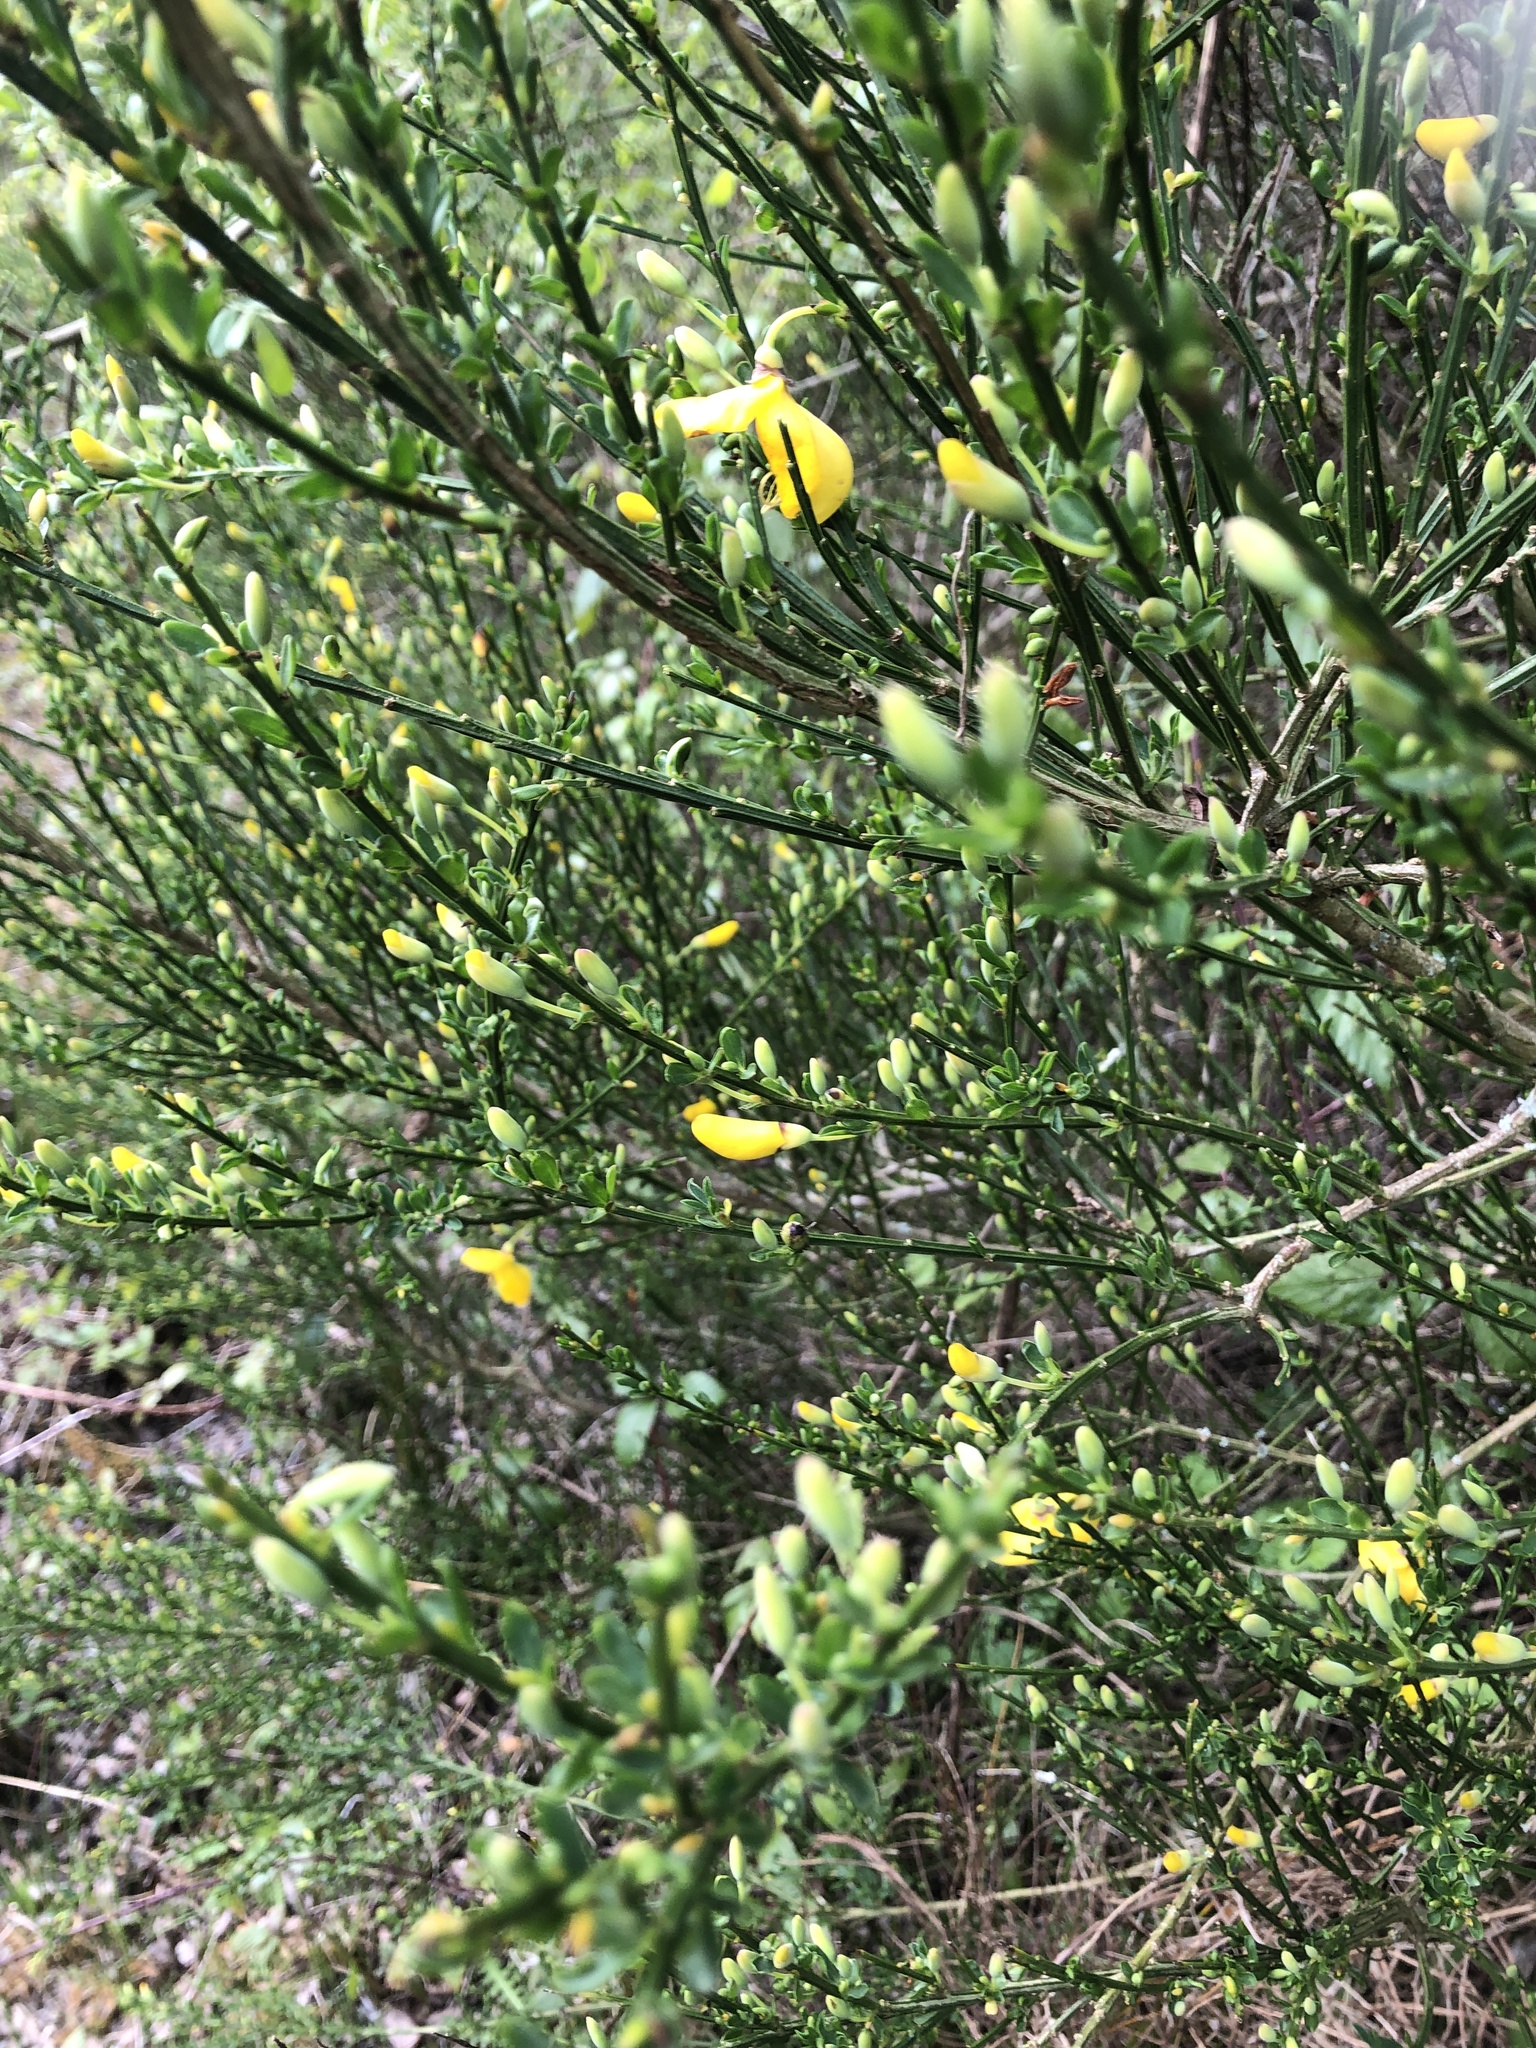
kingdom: Plantae
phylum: Tracheophyta
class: Magnoliopsida
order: Fabales
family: Fabaceae
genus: Cytisus
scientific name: Cytisus scoparius
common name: Scotch broom
